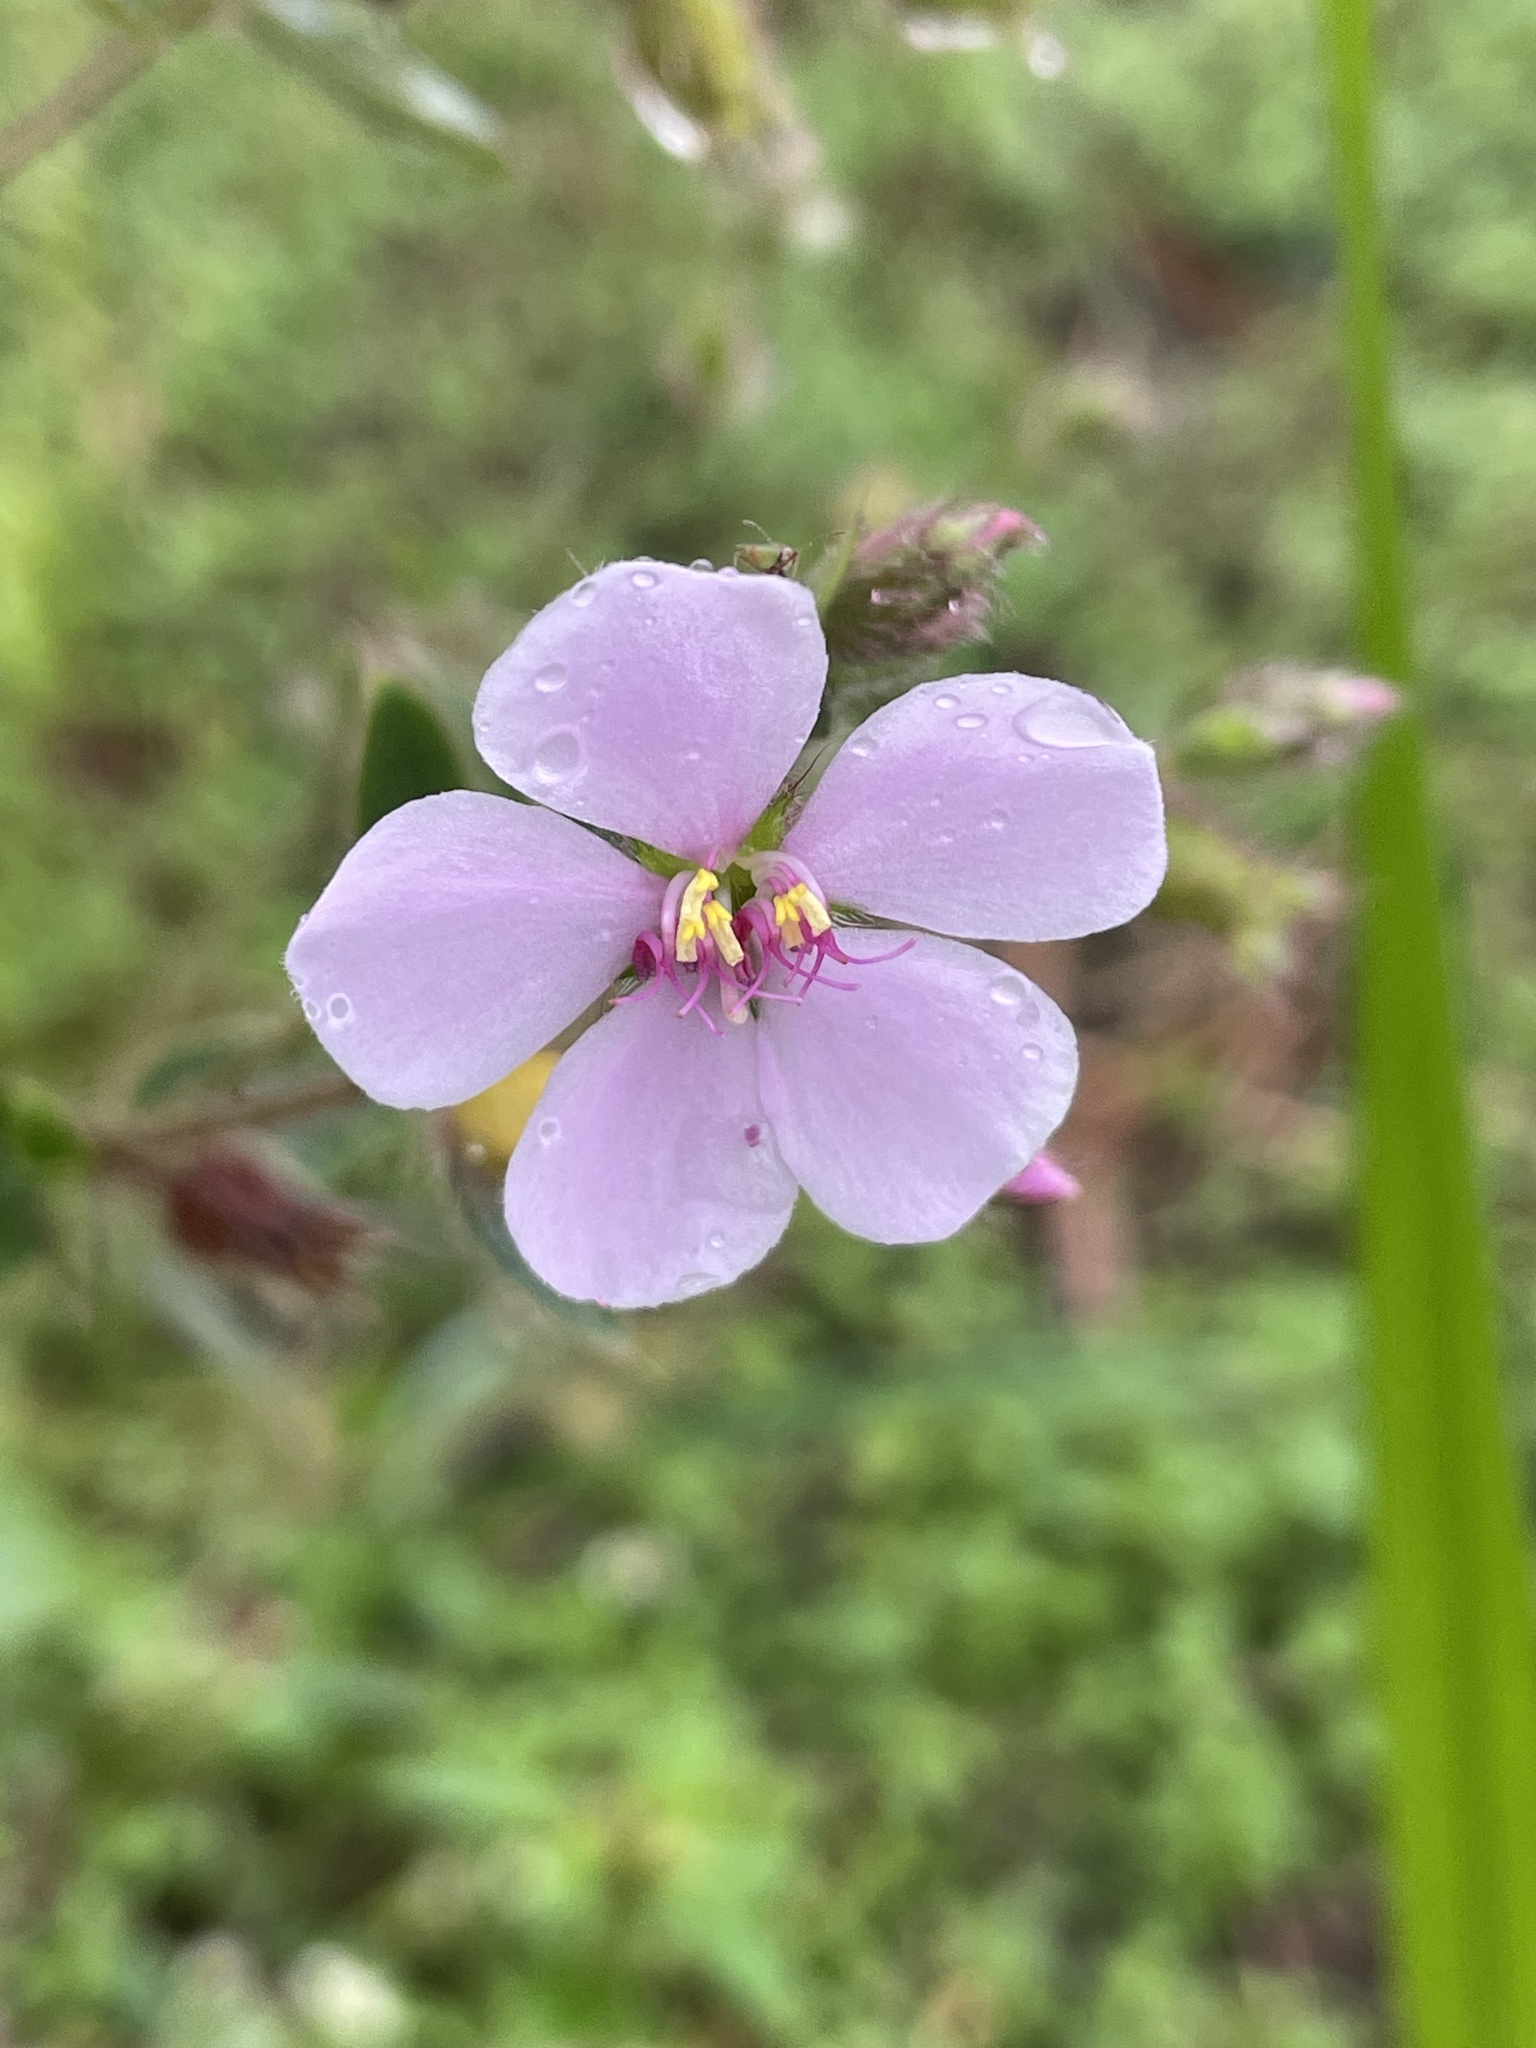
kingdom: Plantae
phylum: Tracheophyta
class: Magnoliopsida
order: Myrtales
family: Melastomataceae
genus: Desmoscelis
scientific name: Desmoscelis villosa
